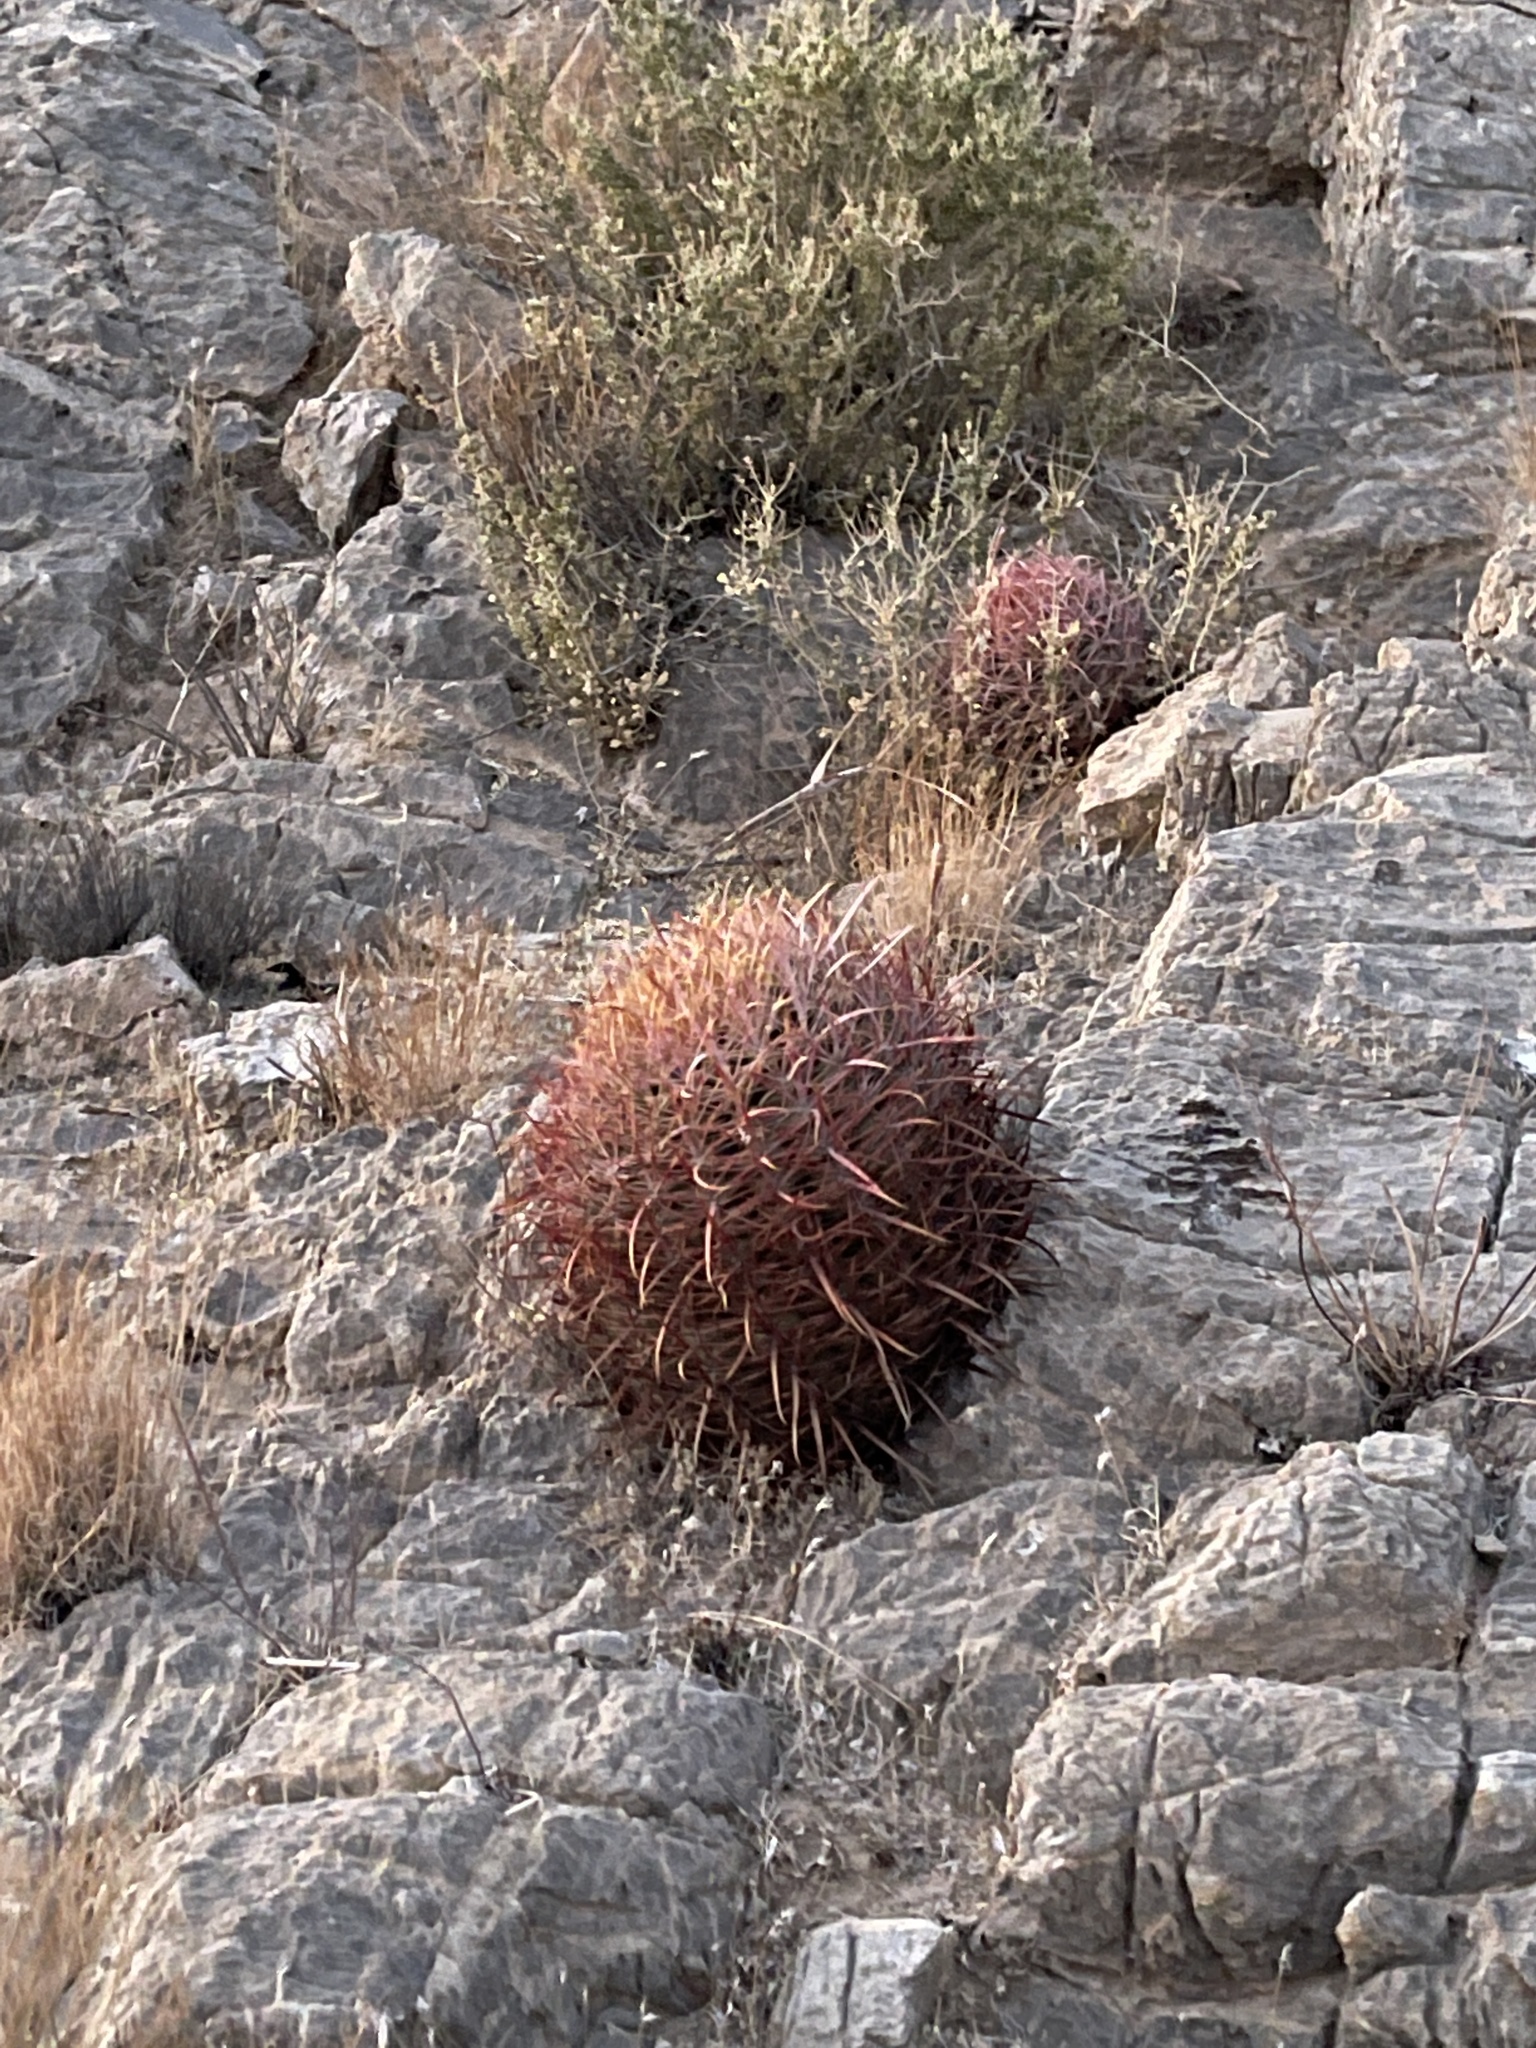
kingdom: Plantae
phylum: Tracheophyta
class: Magnoliopsida
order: Caryophyllales
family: Cactaceae
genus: Ferocactus
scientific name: Ferocactus cylindraceus
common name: California barrel cactus
